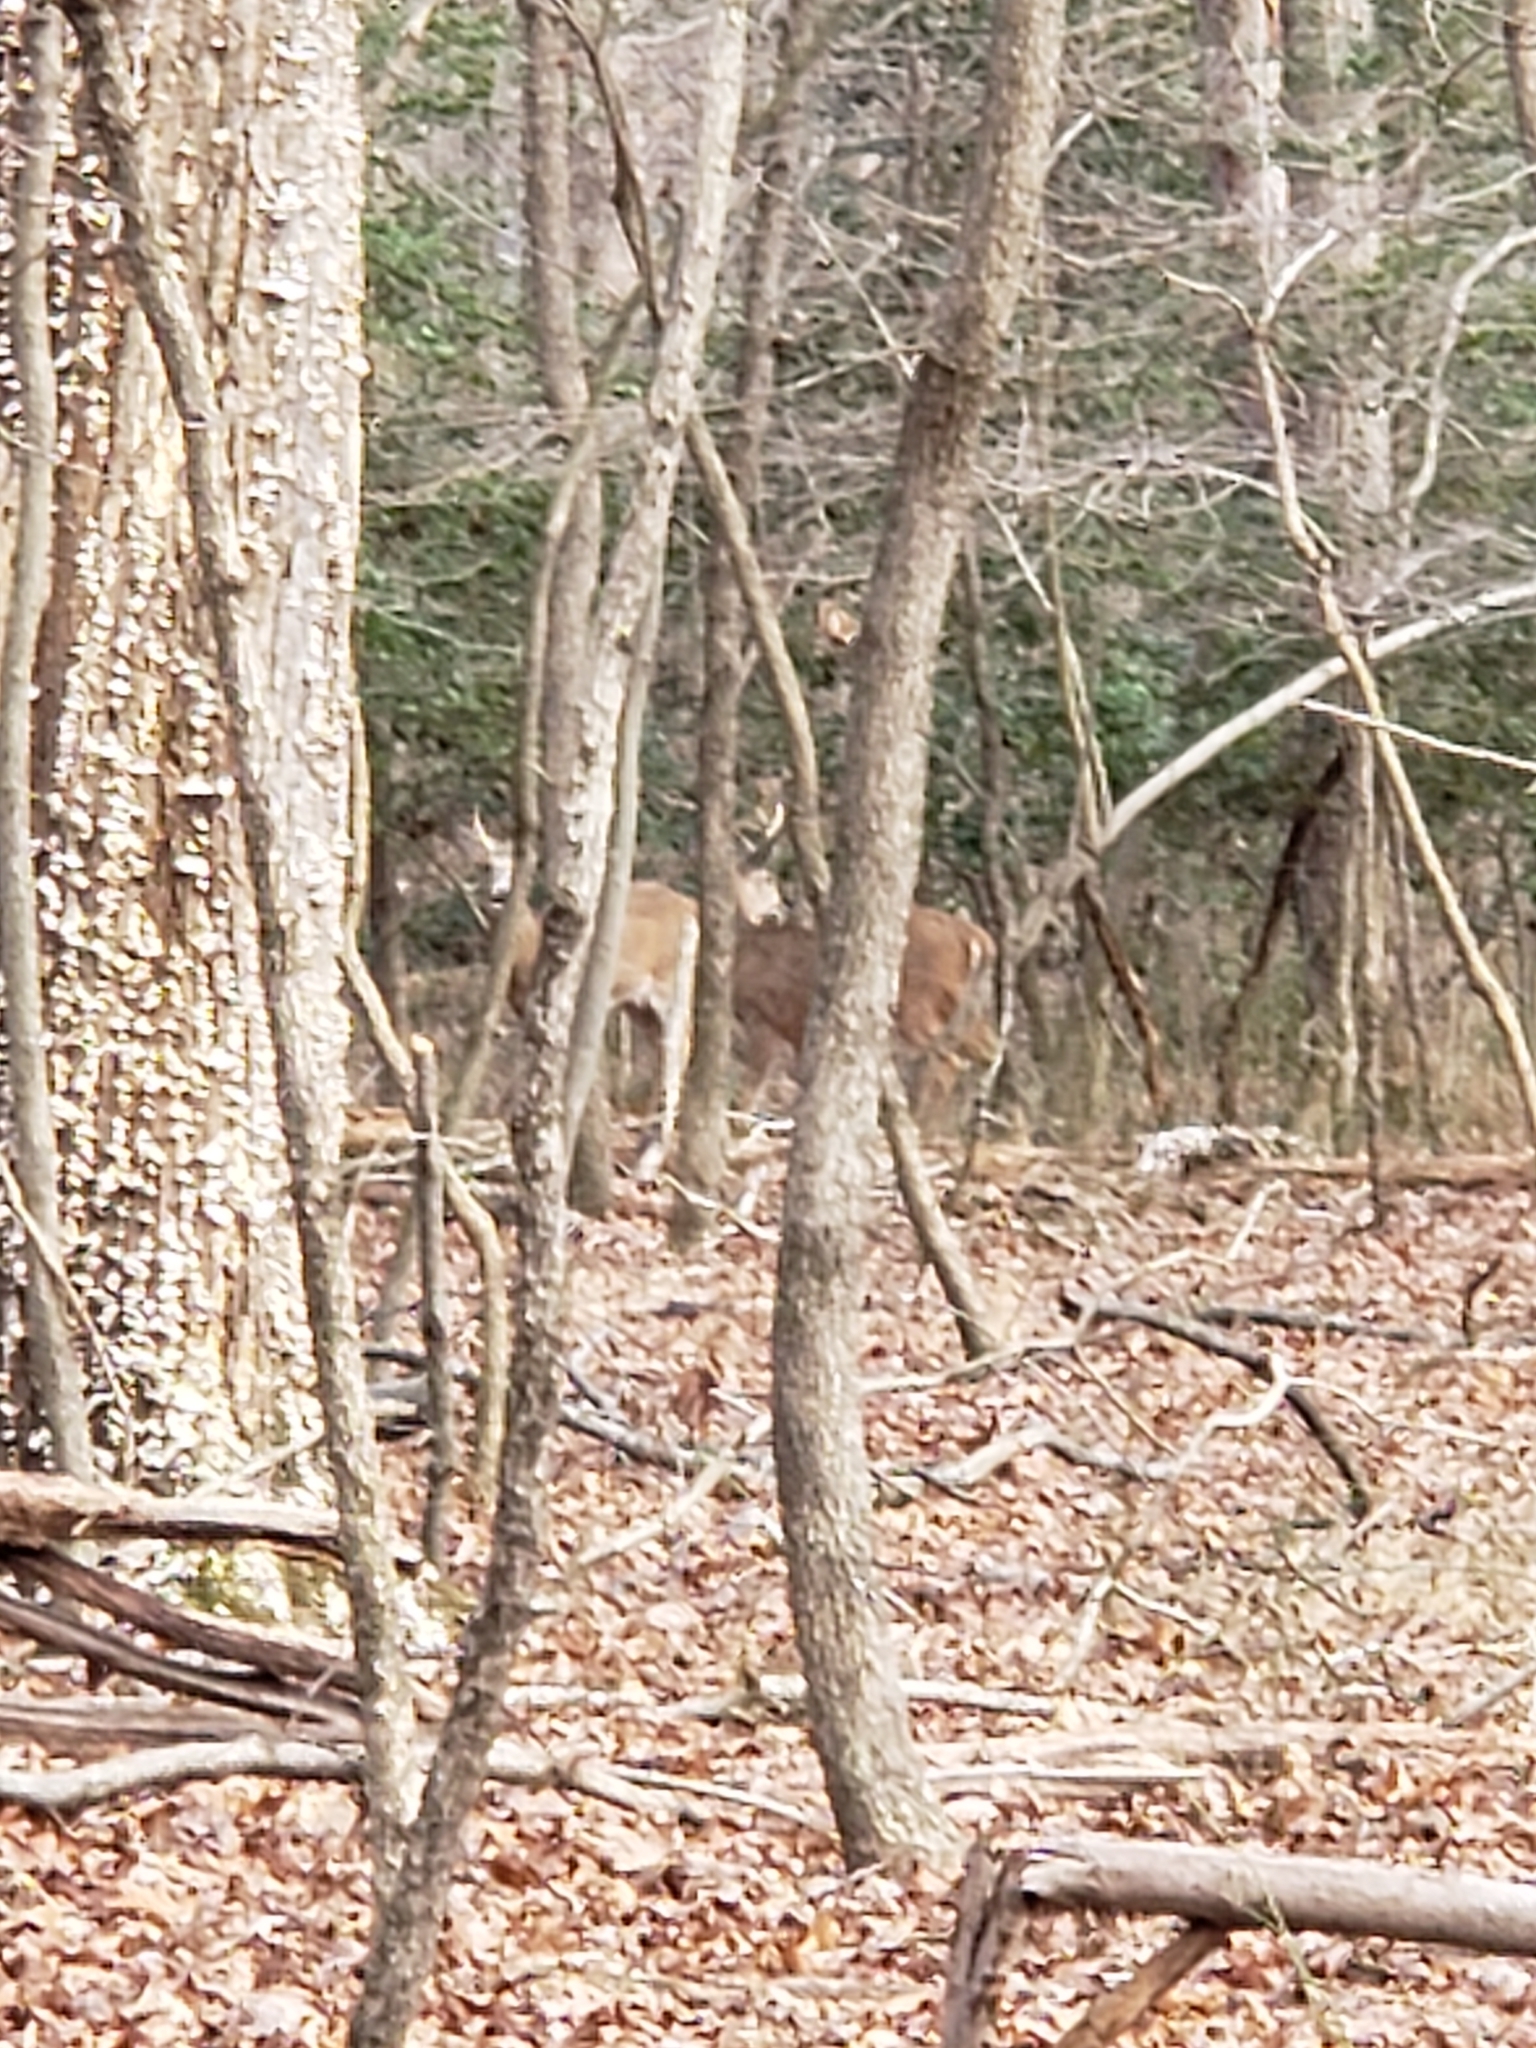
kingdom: Animalia
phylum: Chordata
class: Mammalia
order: Artiodactyla
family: Cervidae
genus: Odocoileus
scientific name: Odocoileus virginianus
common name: White-tailed deer
